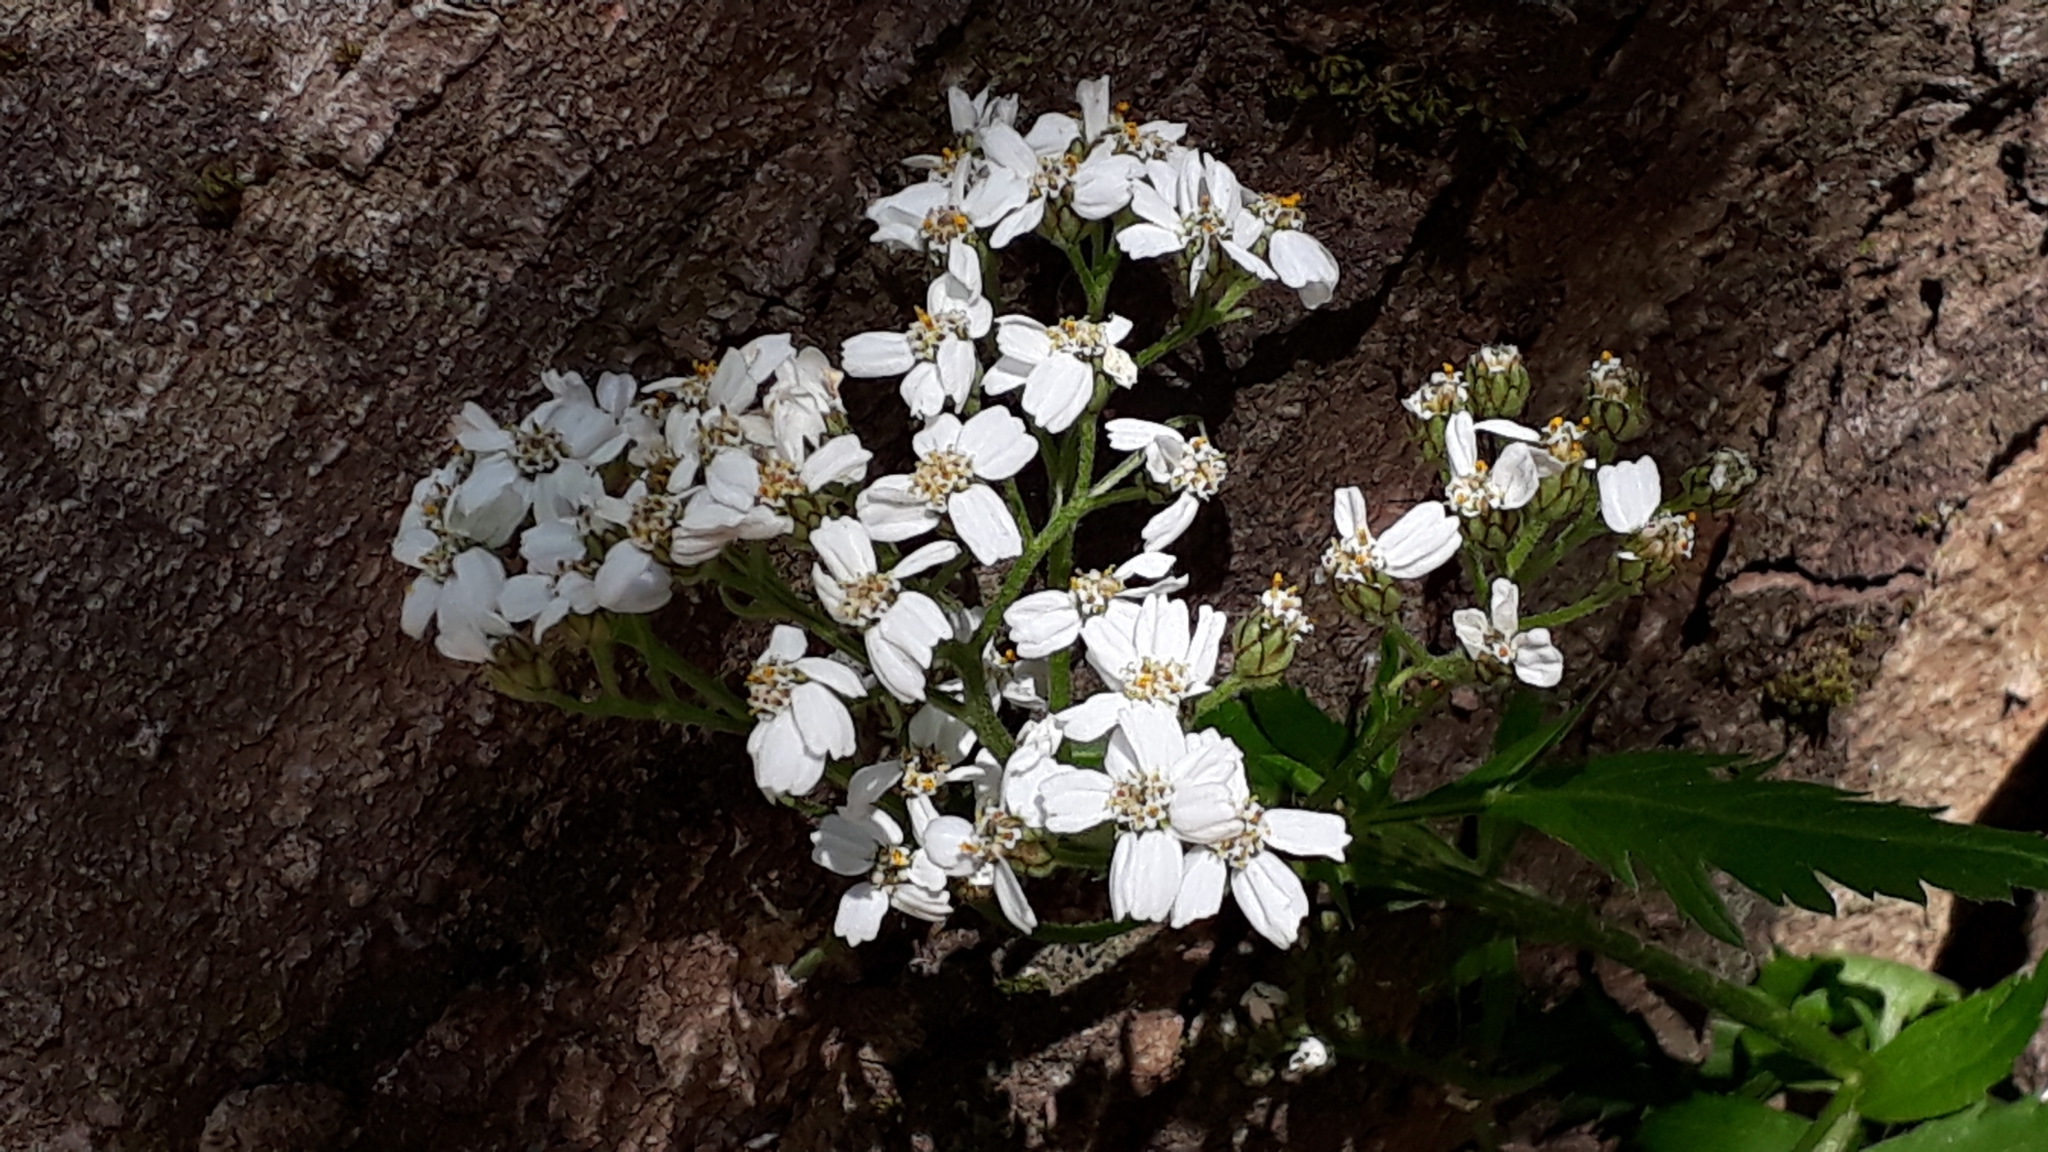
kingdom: Plantae
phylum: Tracheophyta
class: Magnoliopsida
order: Asterales
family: Asteraceae
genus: Achillea
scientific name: Achillea macrophylla
